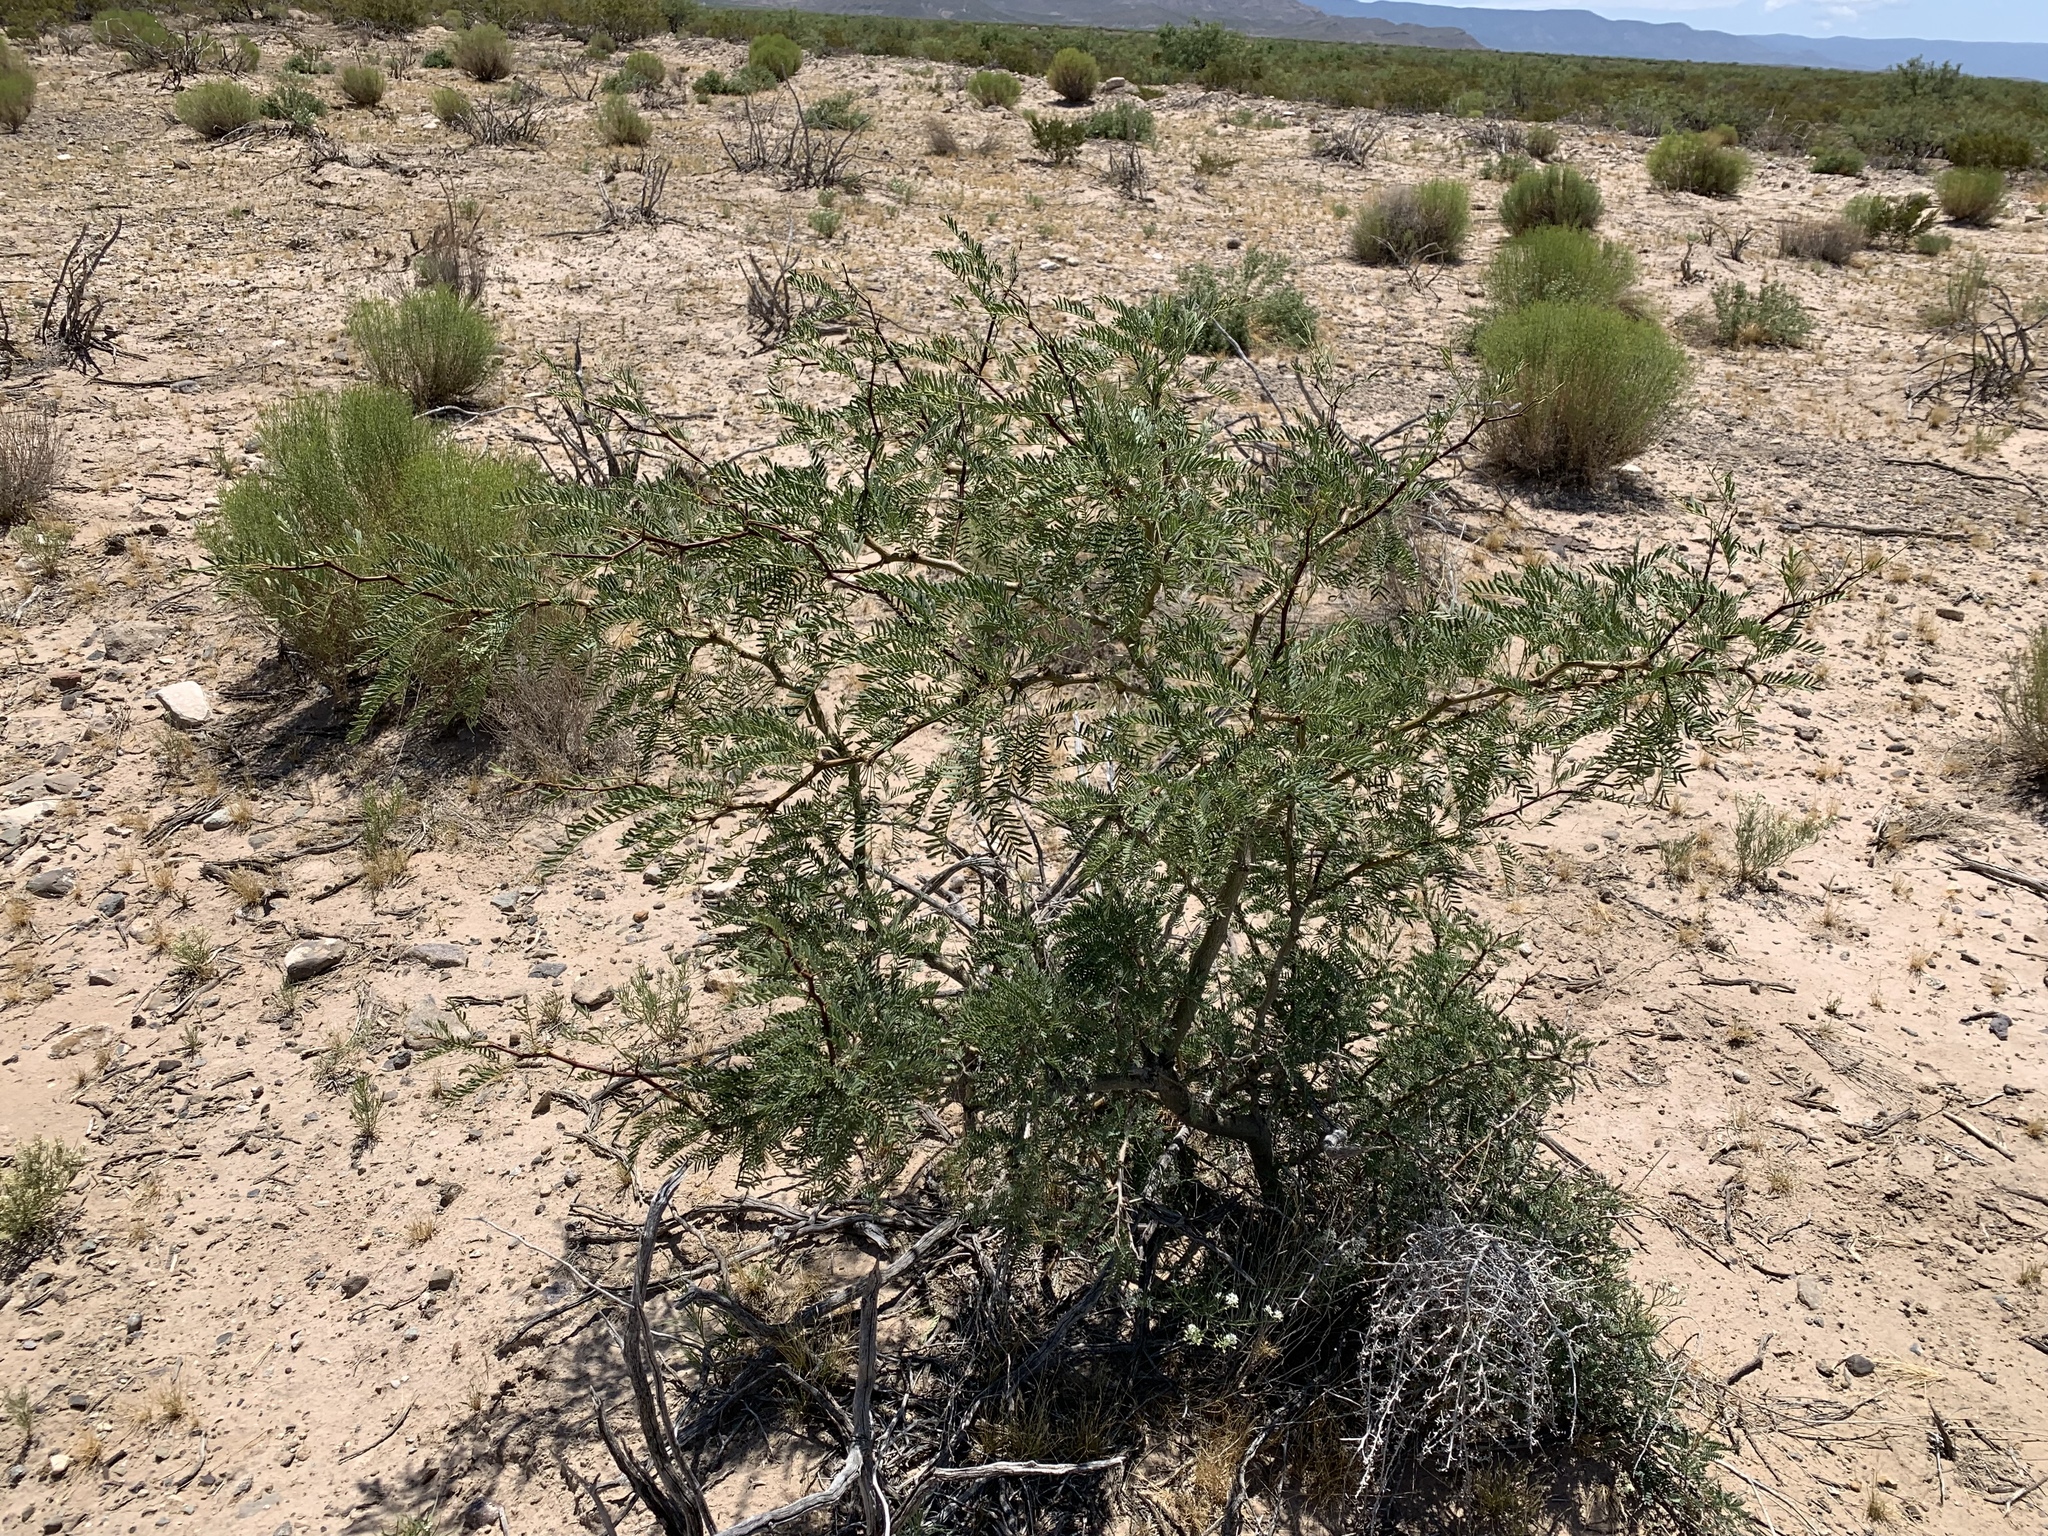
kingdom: Plantae
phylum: Tracheophyta
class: Magnoliopsida
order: Fabales
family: Fabaceae
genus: Prosopis
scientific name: Prosopis glandulosa
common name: Honey mesquite
